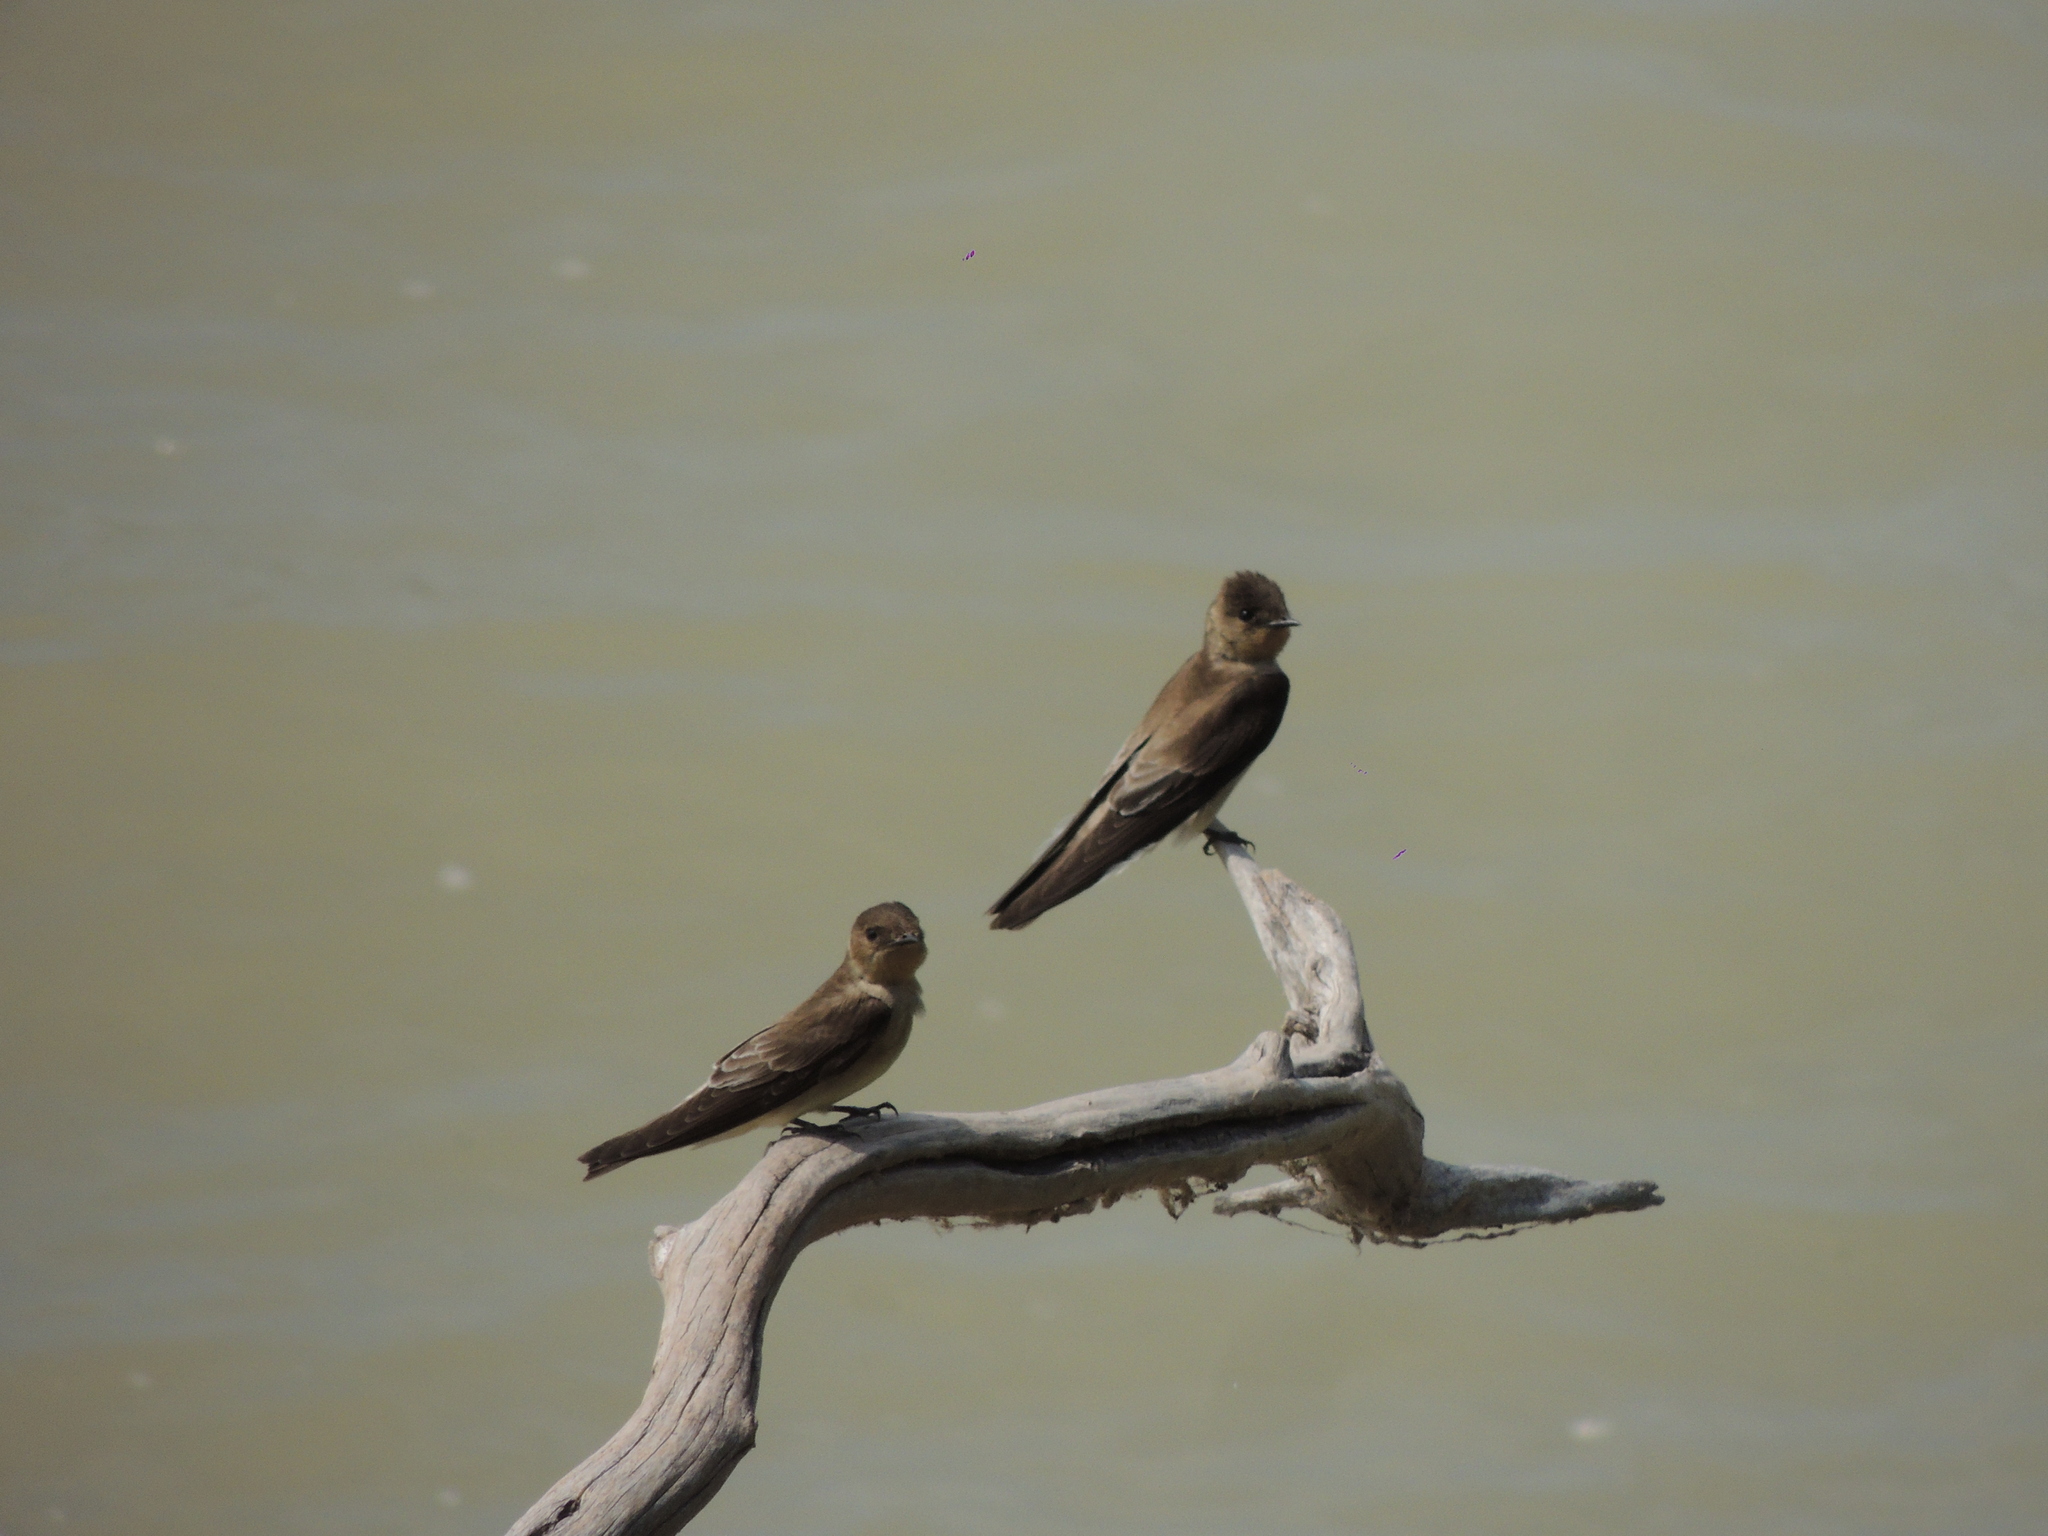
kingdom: Animalia
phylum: Chordata
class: Aves
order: Passeriformes
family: Hirundinidae
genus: Stelgidopteryx
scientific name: Stelgidopteryx ruficollis
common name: Southern rough-winged swallow
